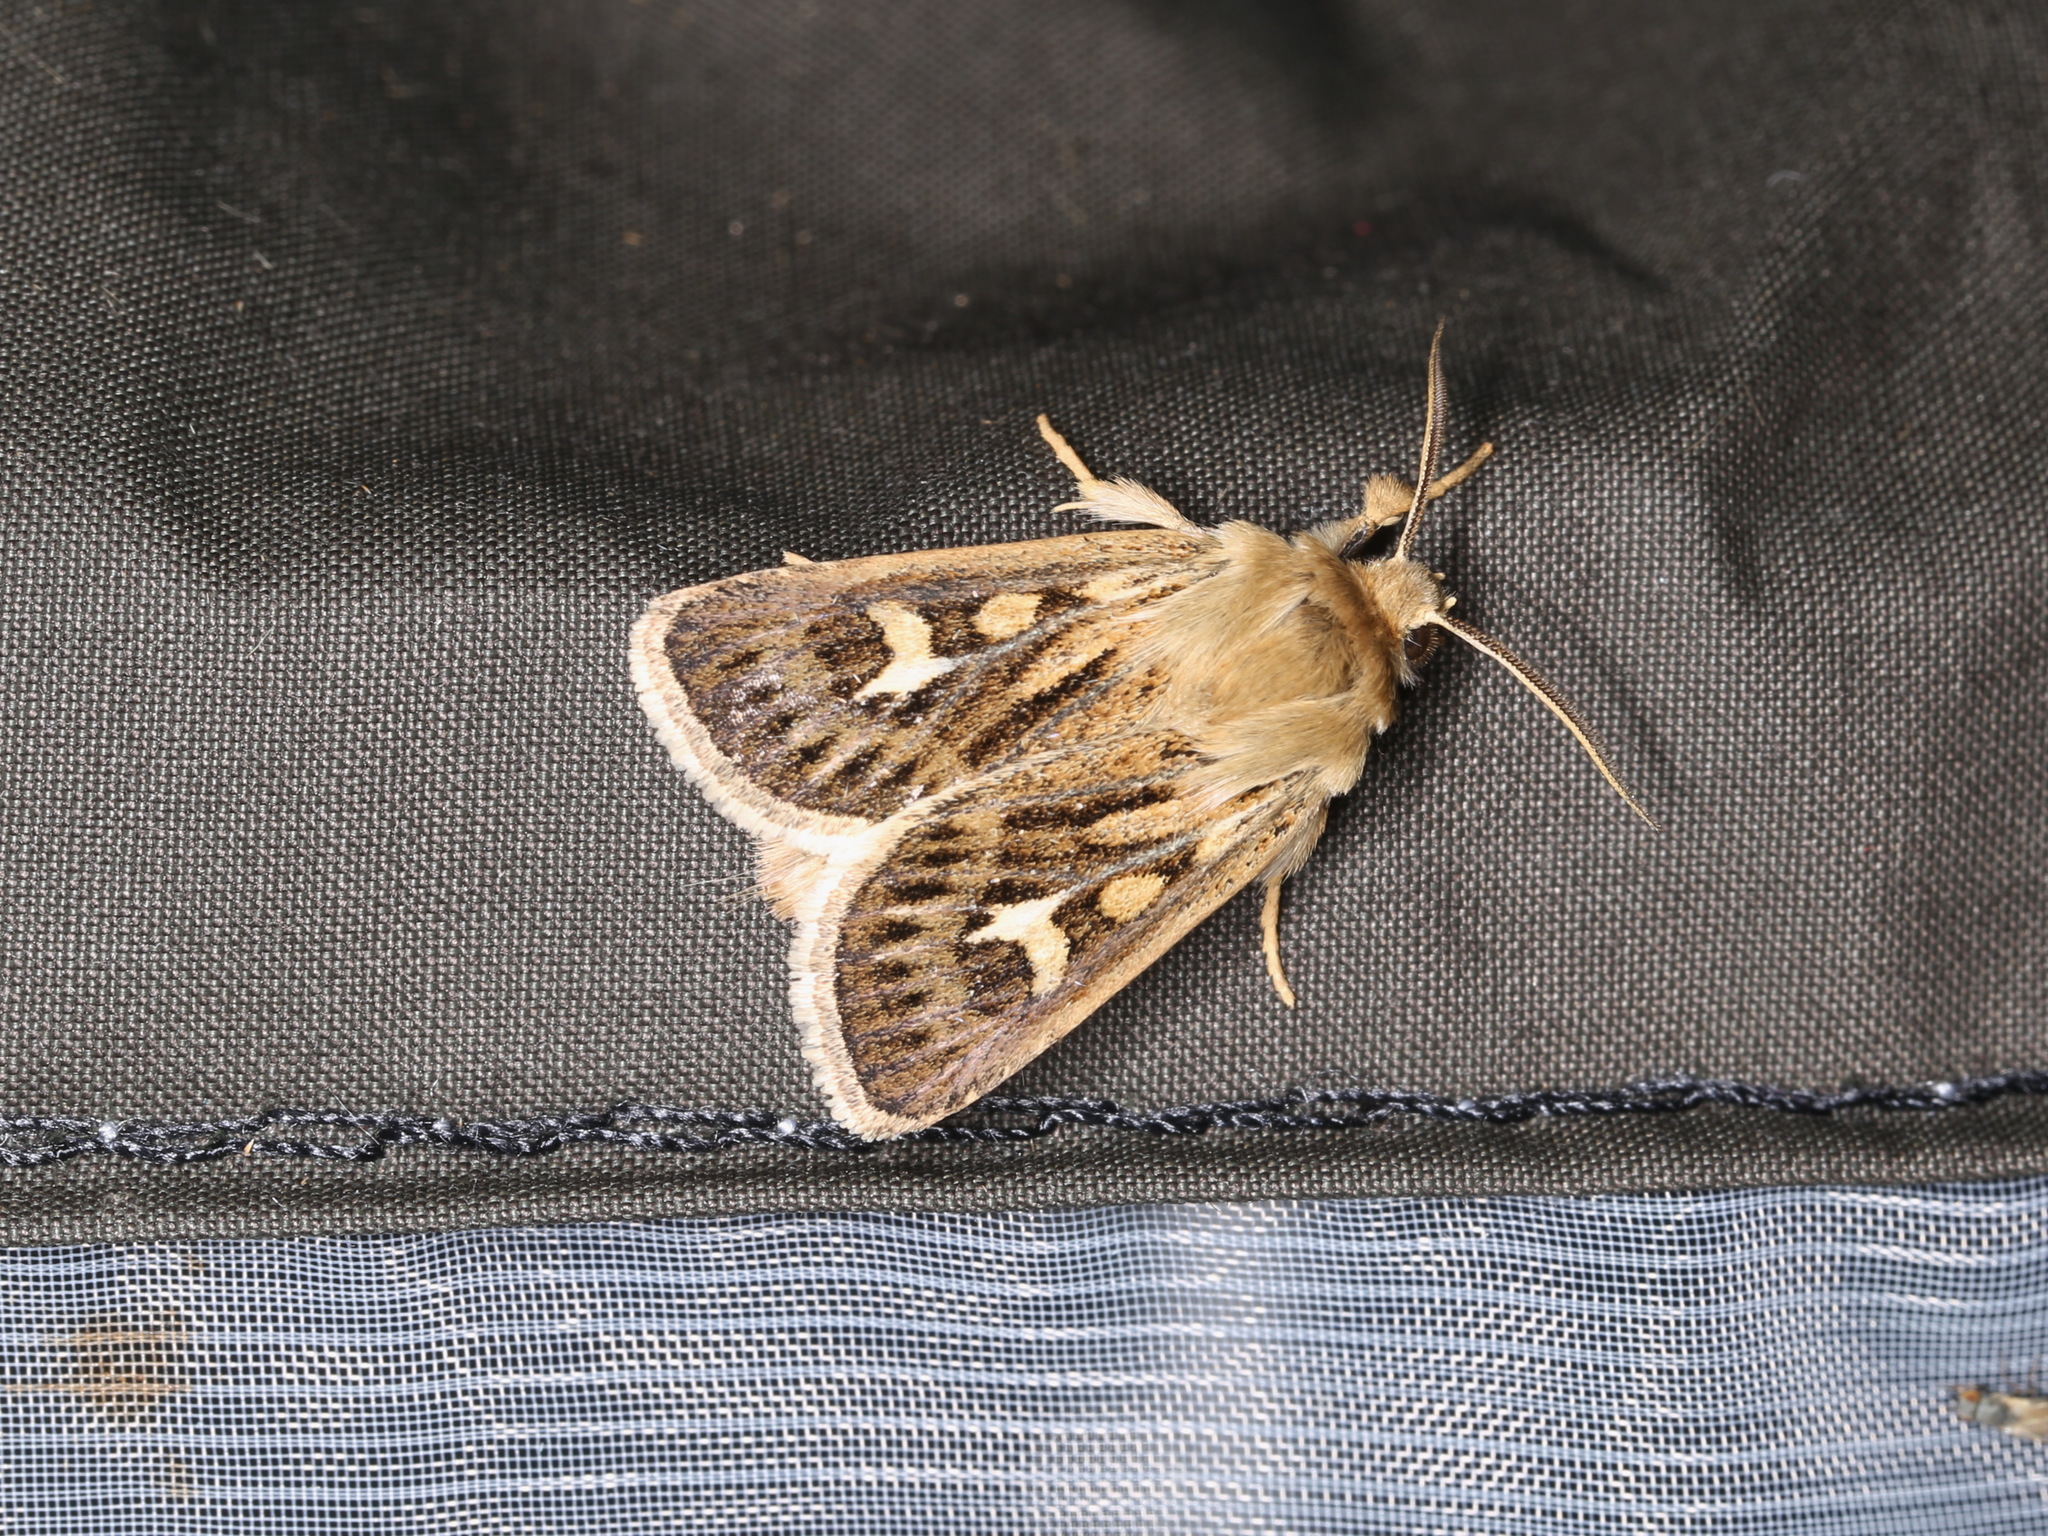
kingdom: Animalia
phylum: Arthropoda
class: Insecta
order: Lepidoptera
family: Noctuidae
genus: Cerapteryx
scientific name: Cerapteryx graminis
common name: Antler moth
